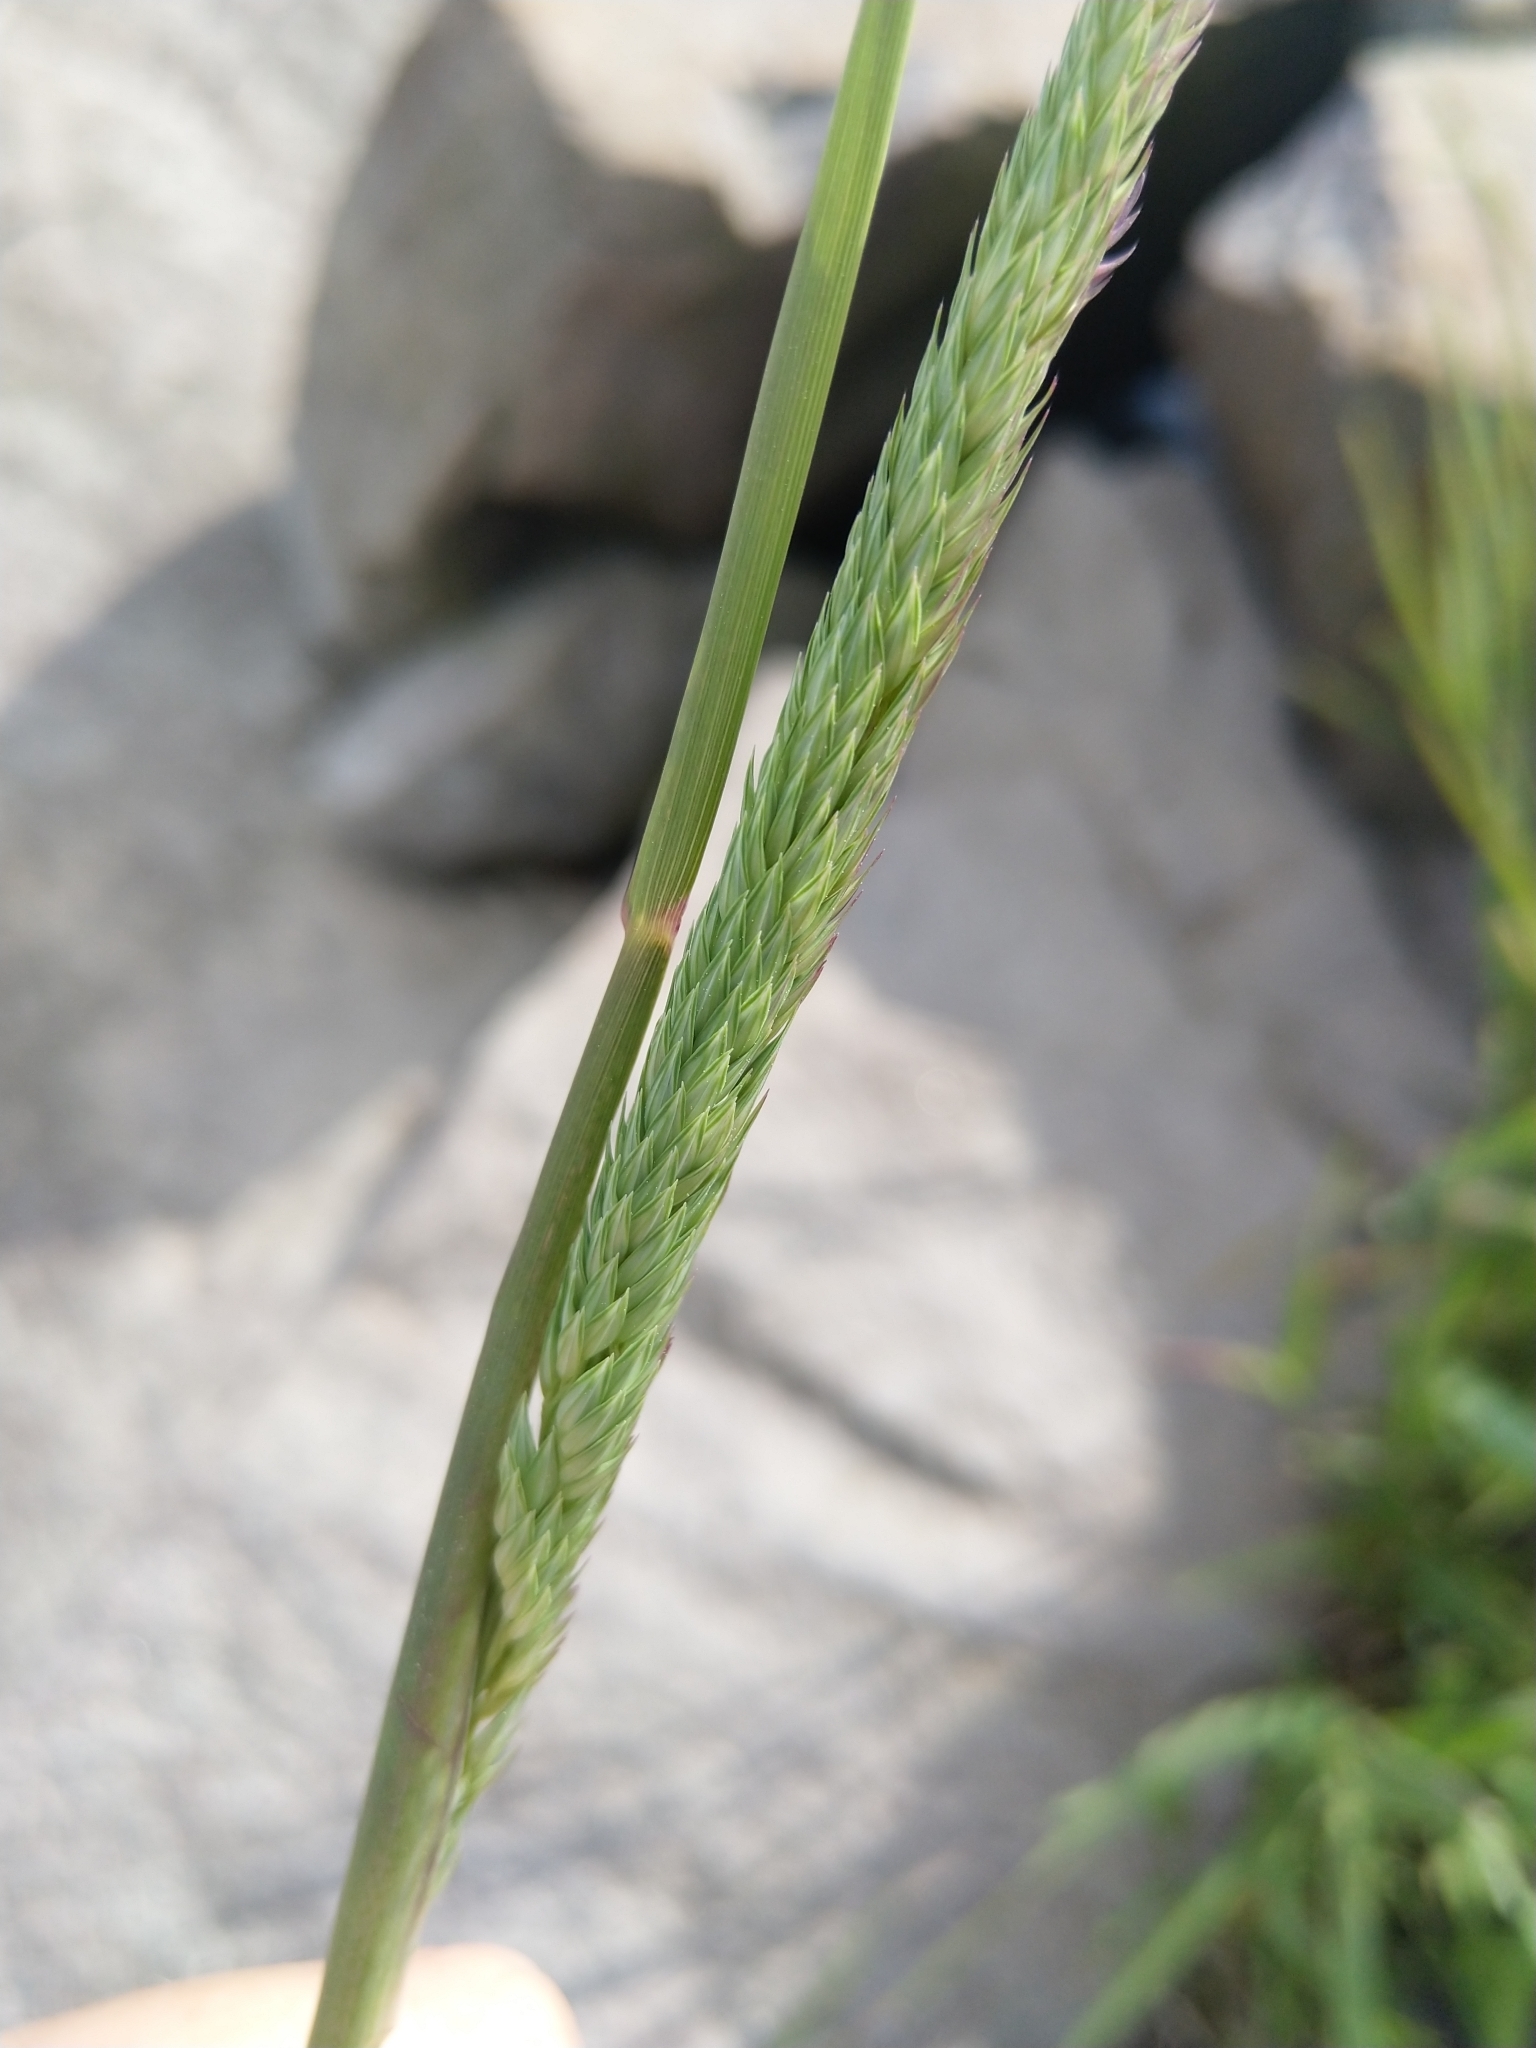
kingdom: Plantae
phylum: Tracheophyta
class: Liliopsida
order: Poales
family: Poaceae
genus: Phalaris
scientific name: Phalaris arundinacea
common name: Reed canary-grass
